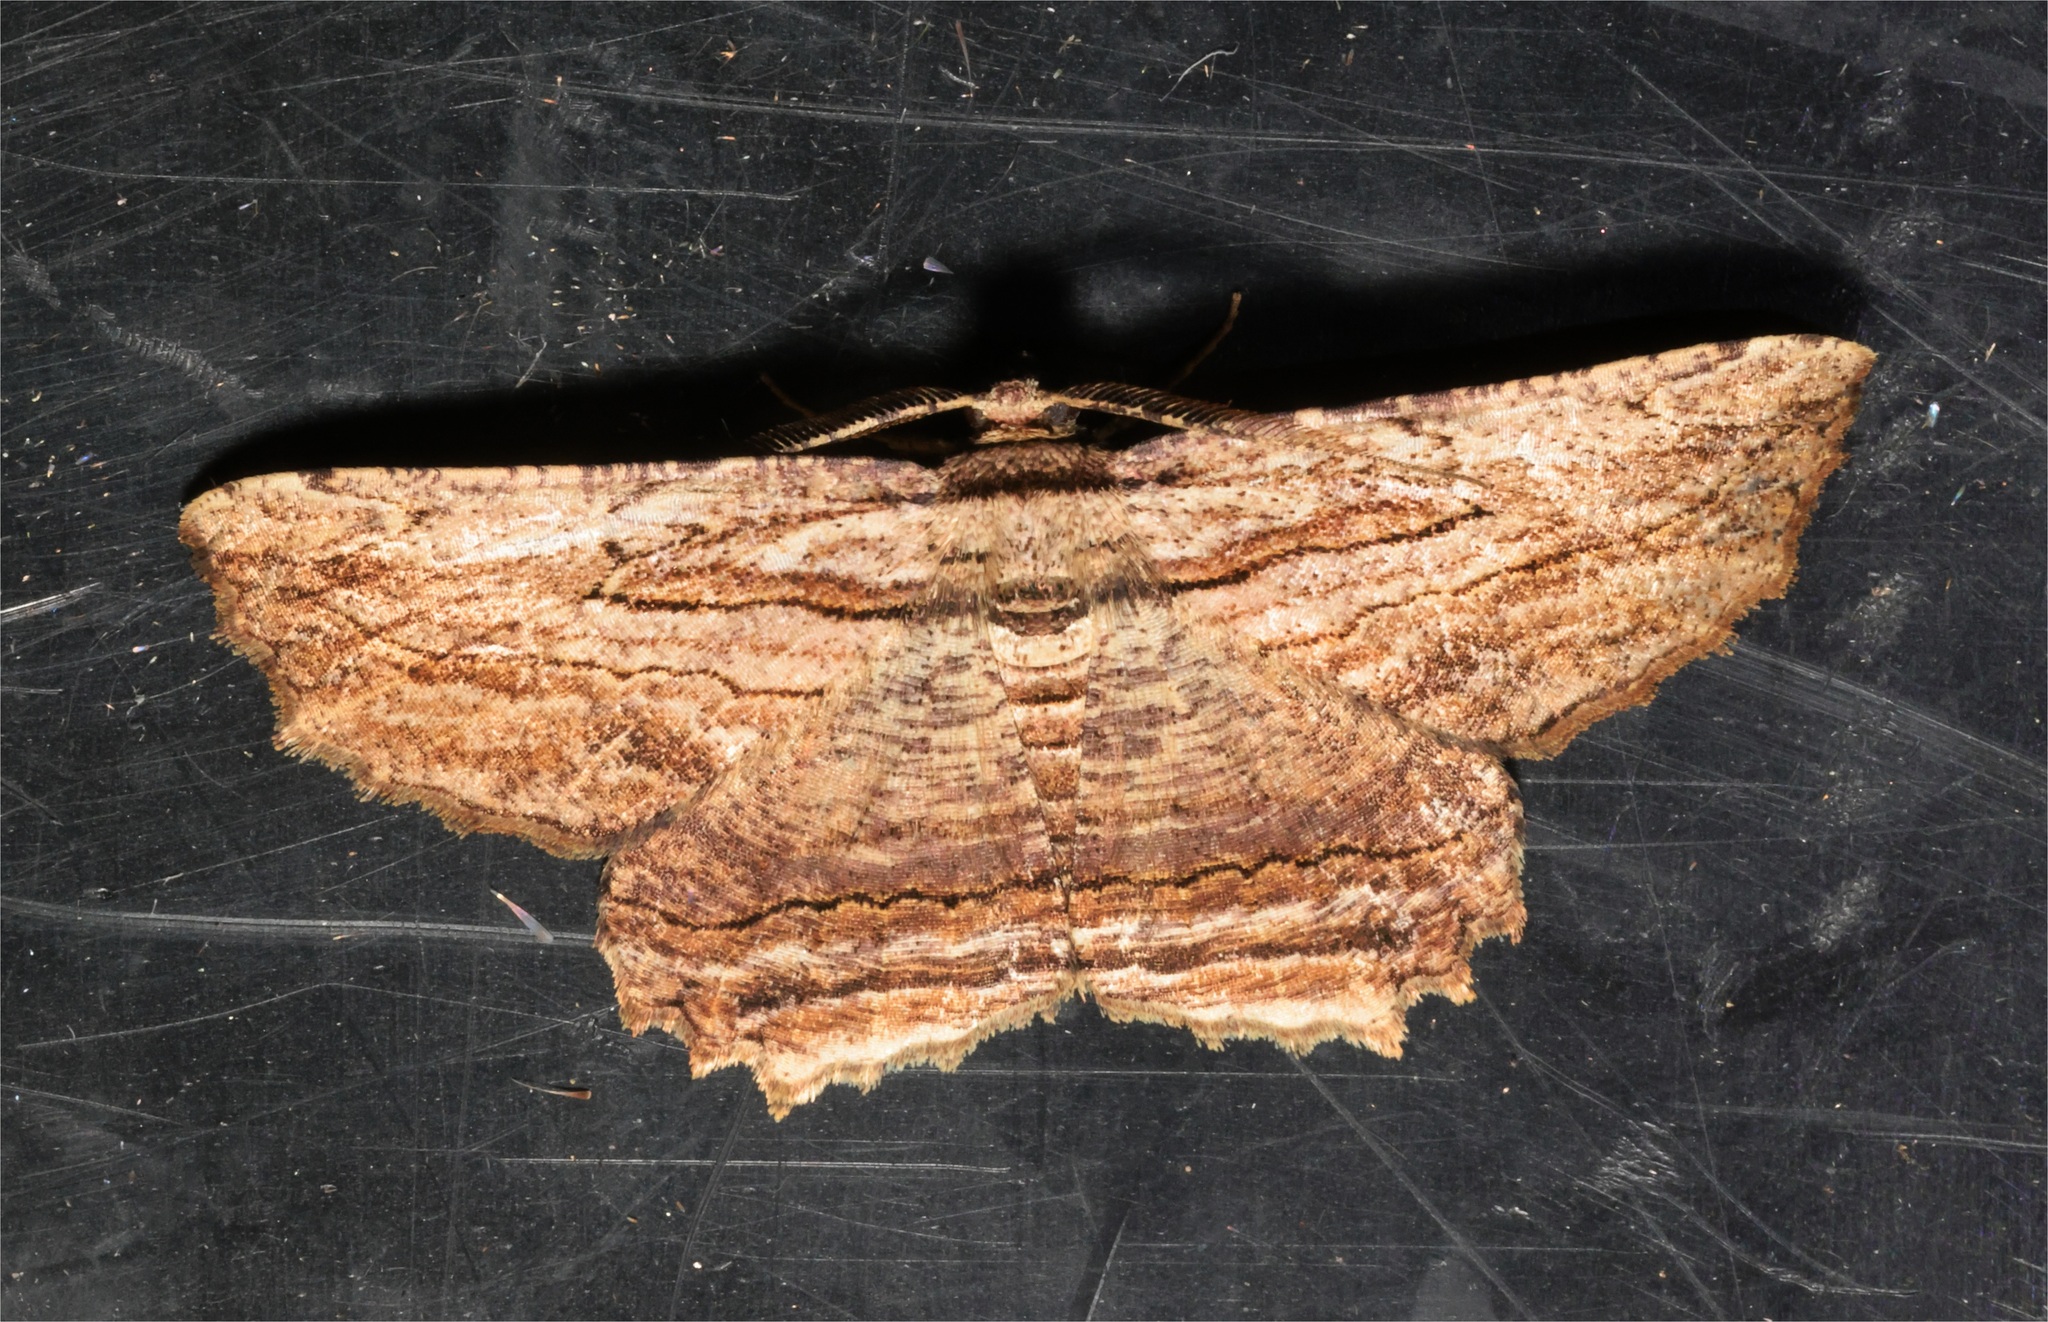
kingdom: Animalia
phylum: Arthropoda
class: Insecta
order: Lepidoptera
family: Geometridae
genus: Menophra
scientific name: Menophra subterminalis
